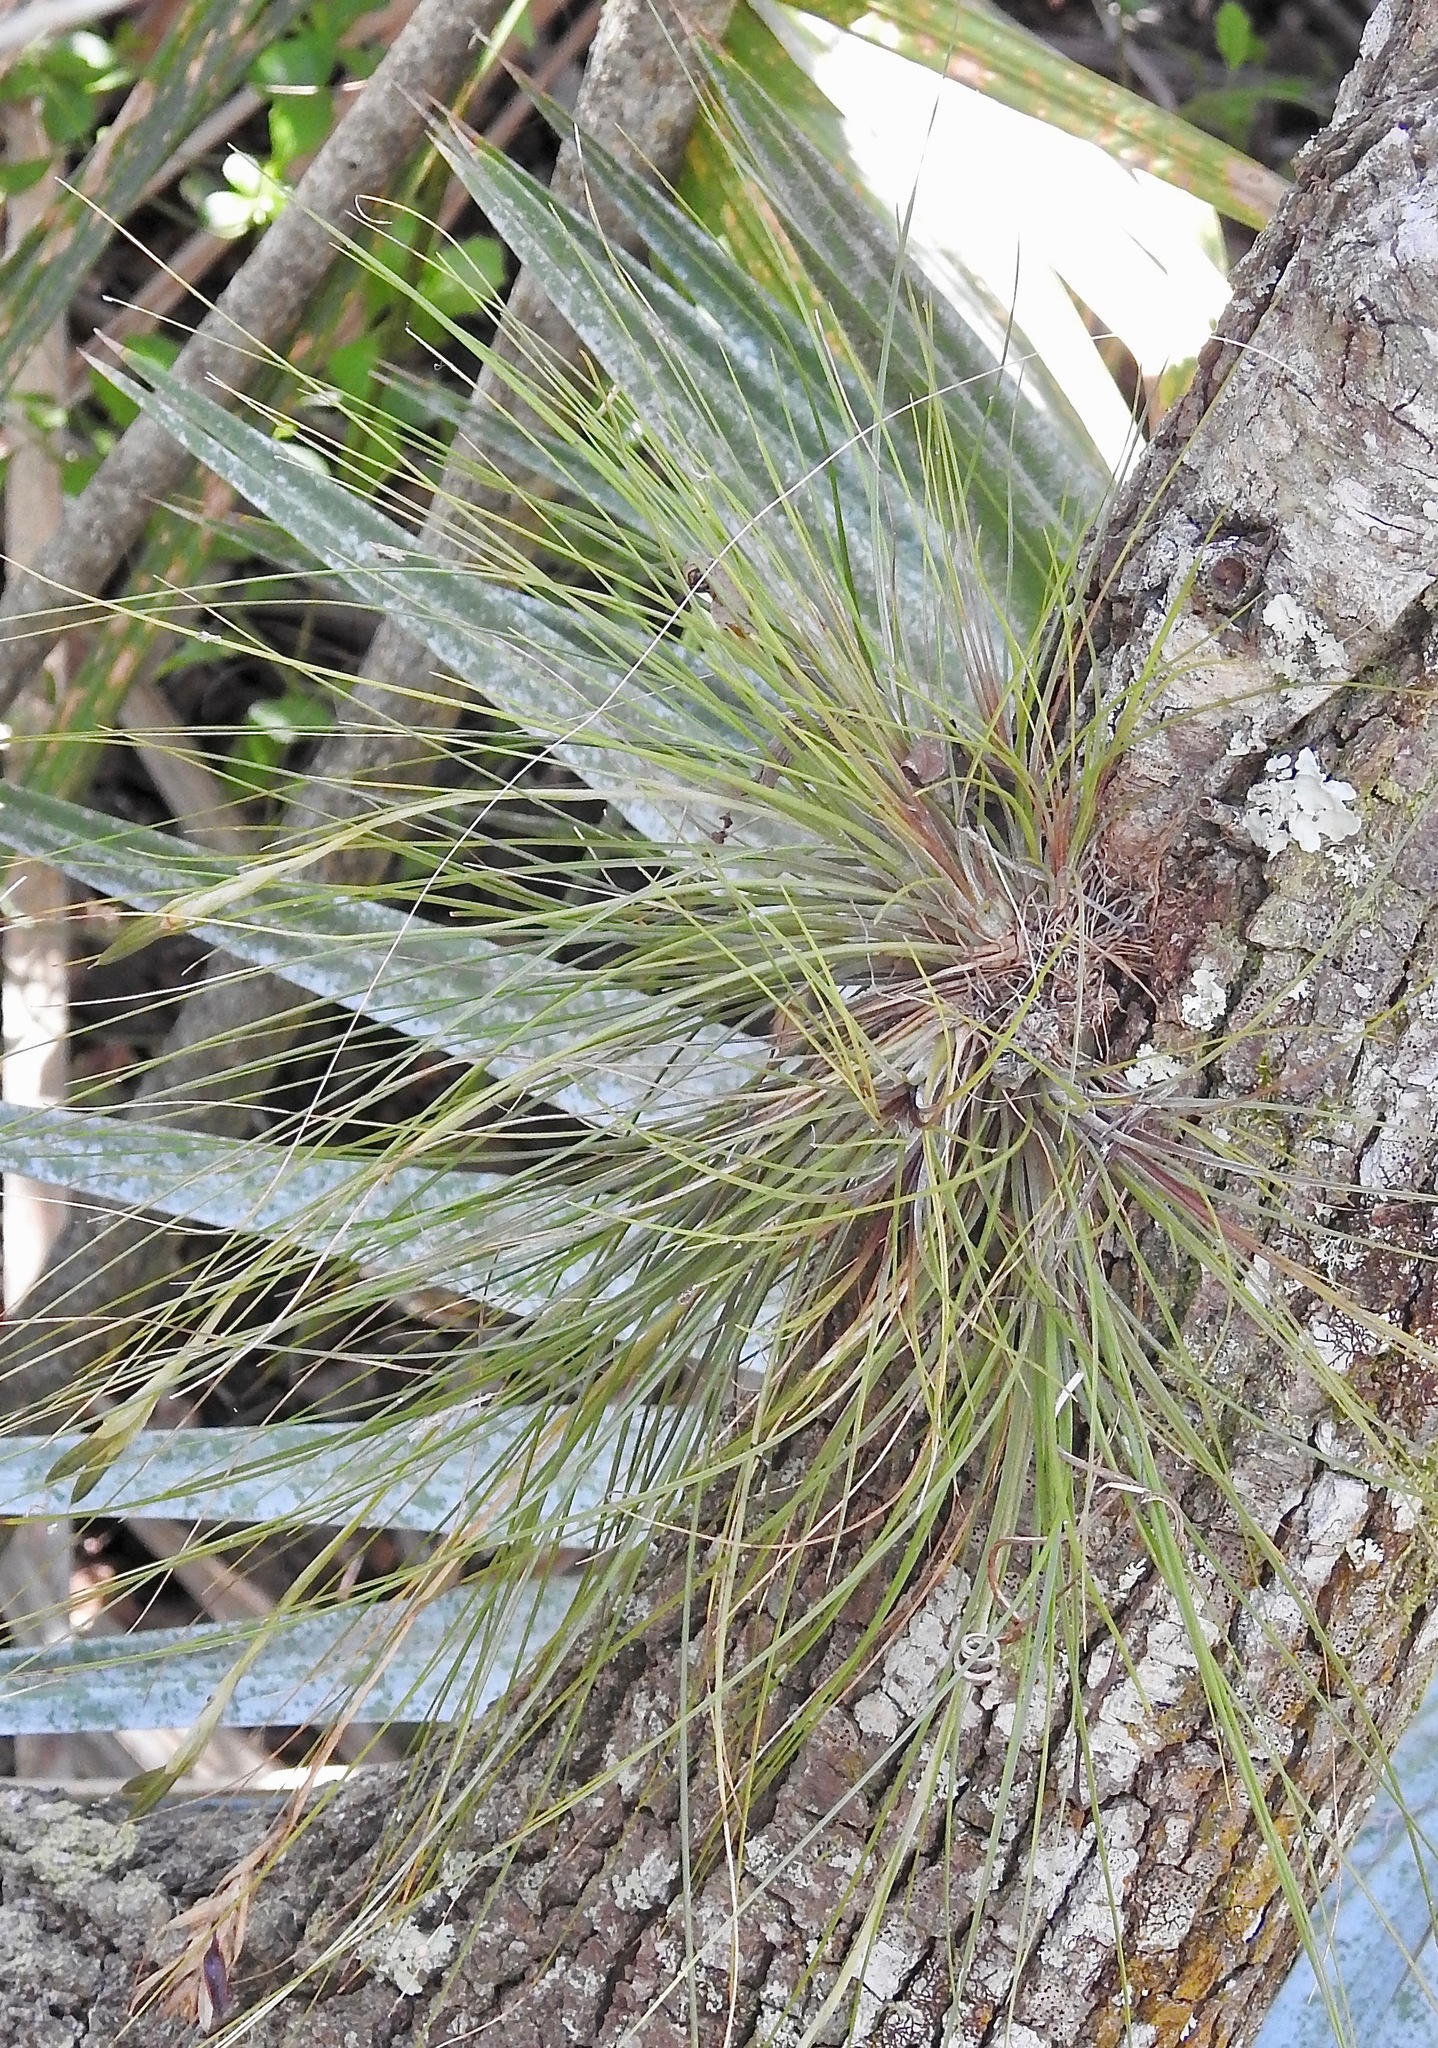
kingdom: Plantae
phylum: Tracheophyta
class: Liliopsida
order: Poales
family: Bromeliaceae
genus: Tillandsia
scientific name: Tillandsia setacea
